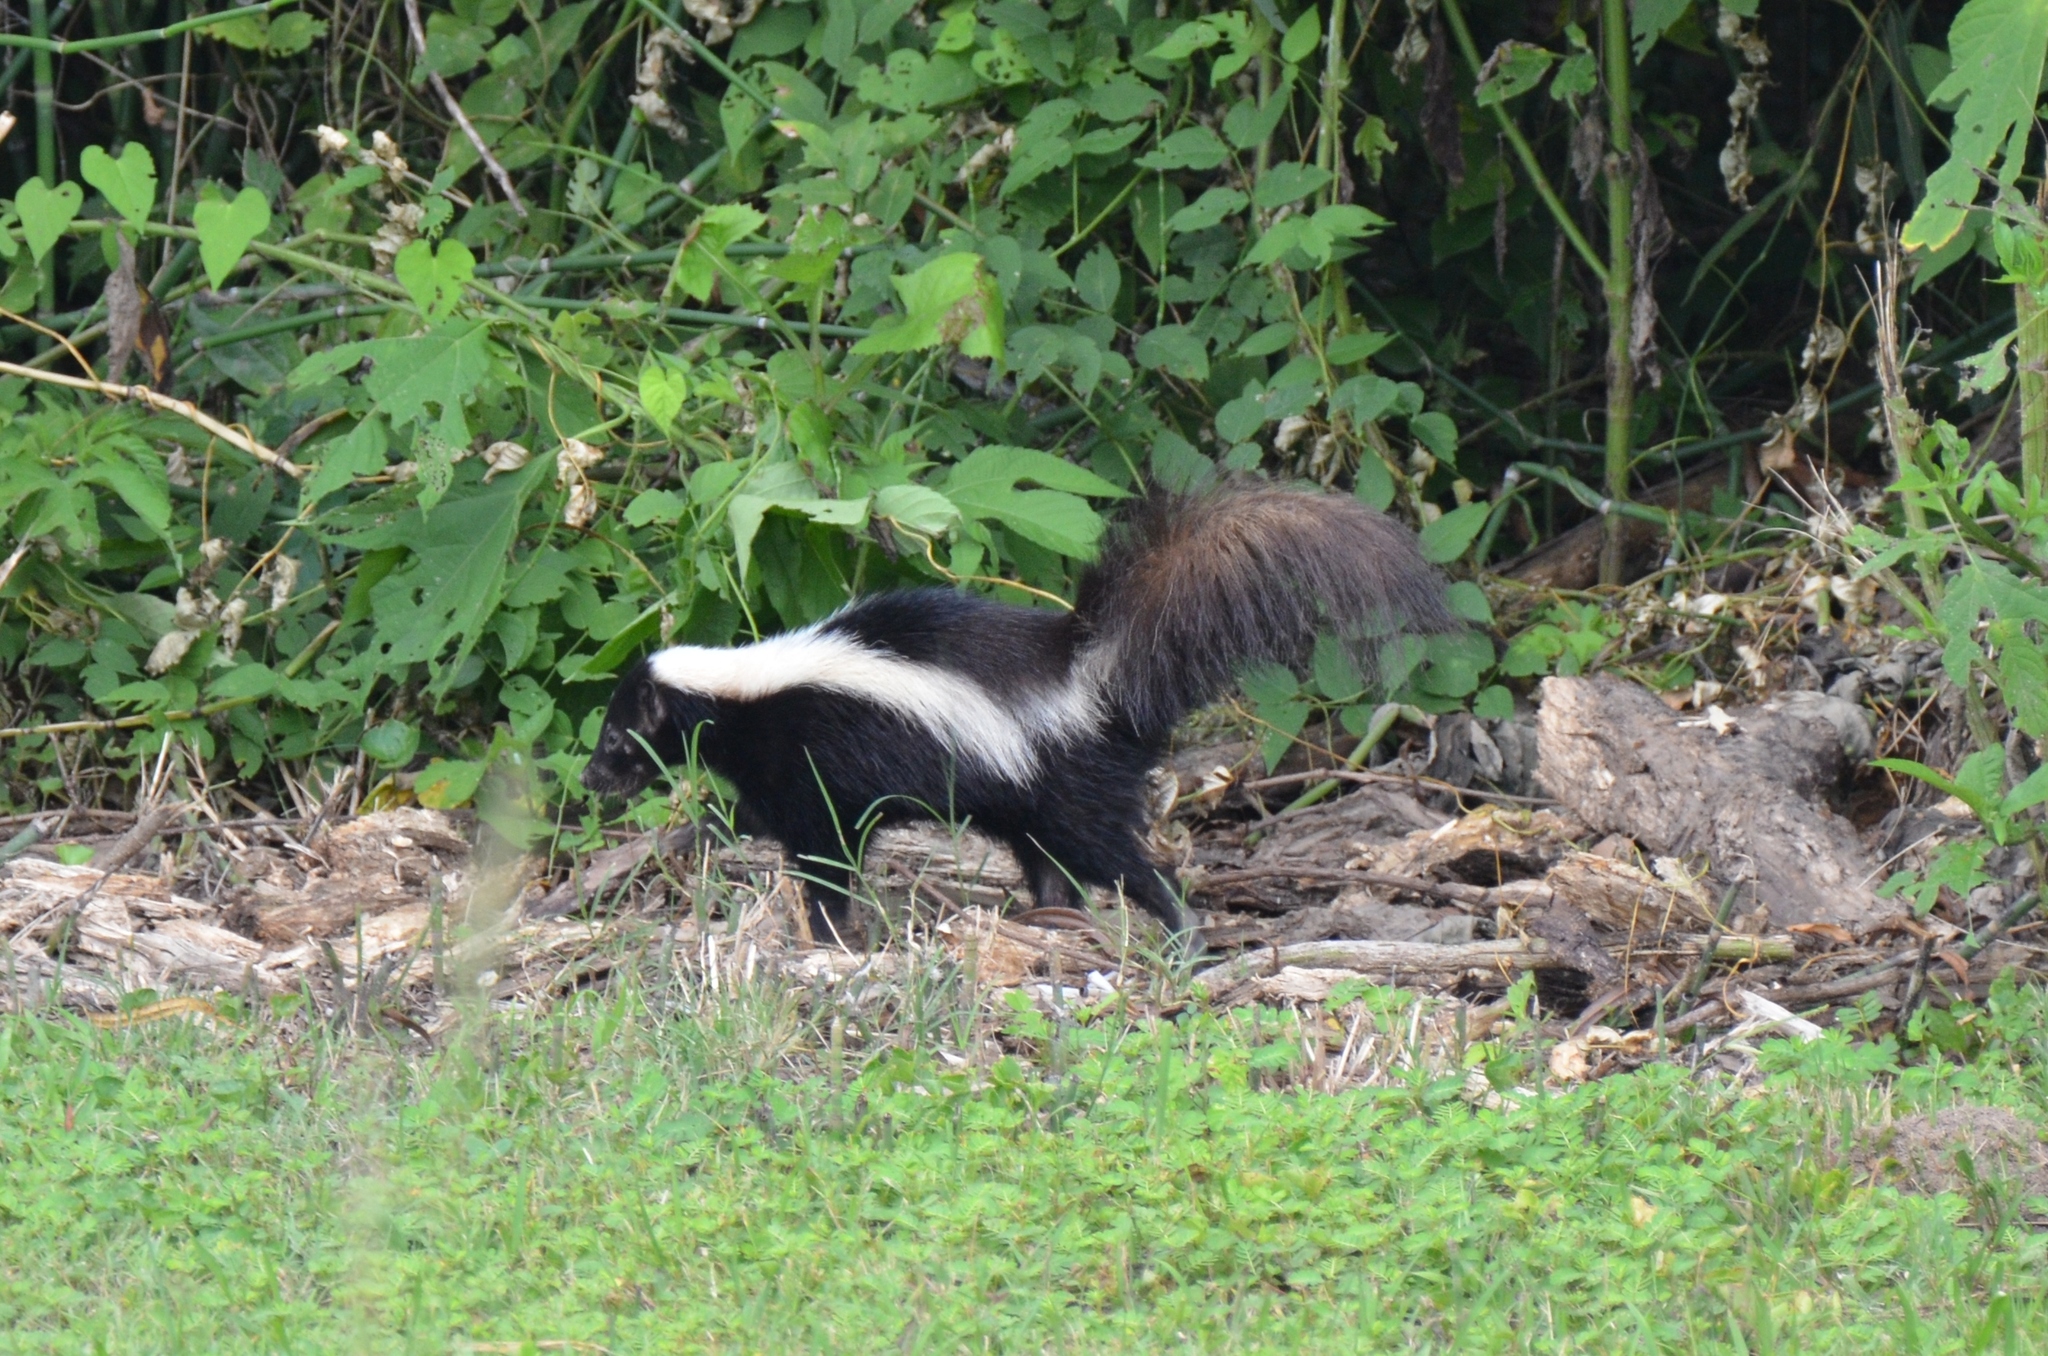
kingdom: Animalia
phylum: Chordata
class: Mammalia
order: Carnivora
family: Mephitidae
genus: Mephitis
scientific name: Mephitis mephitis
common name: Striped skunk
